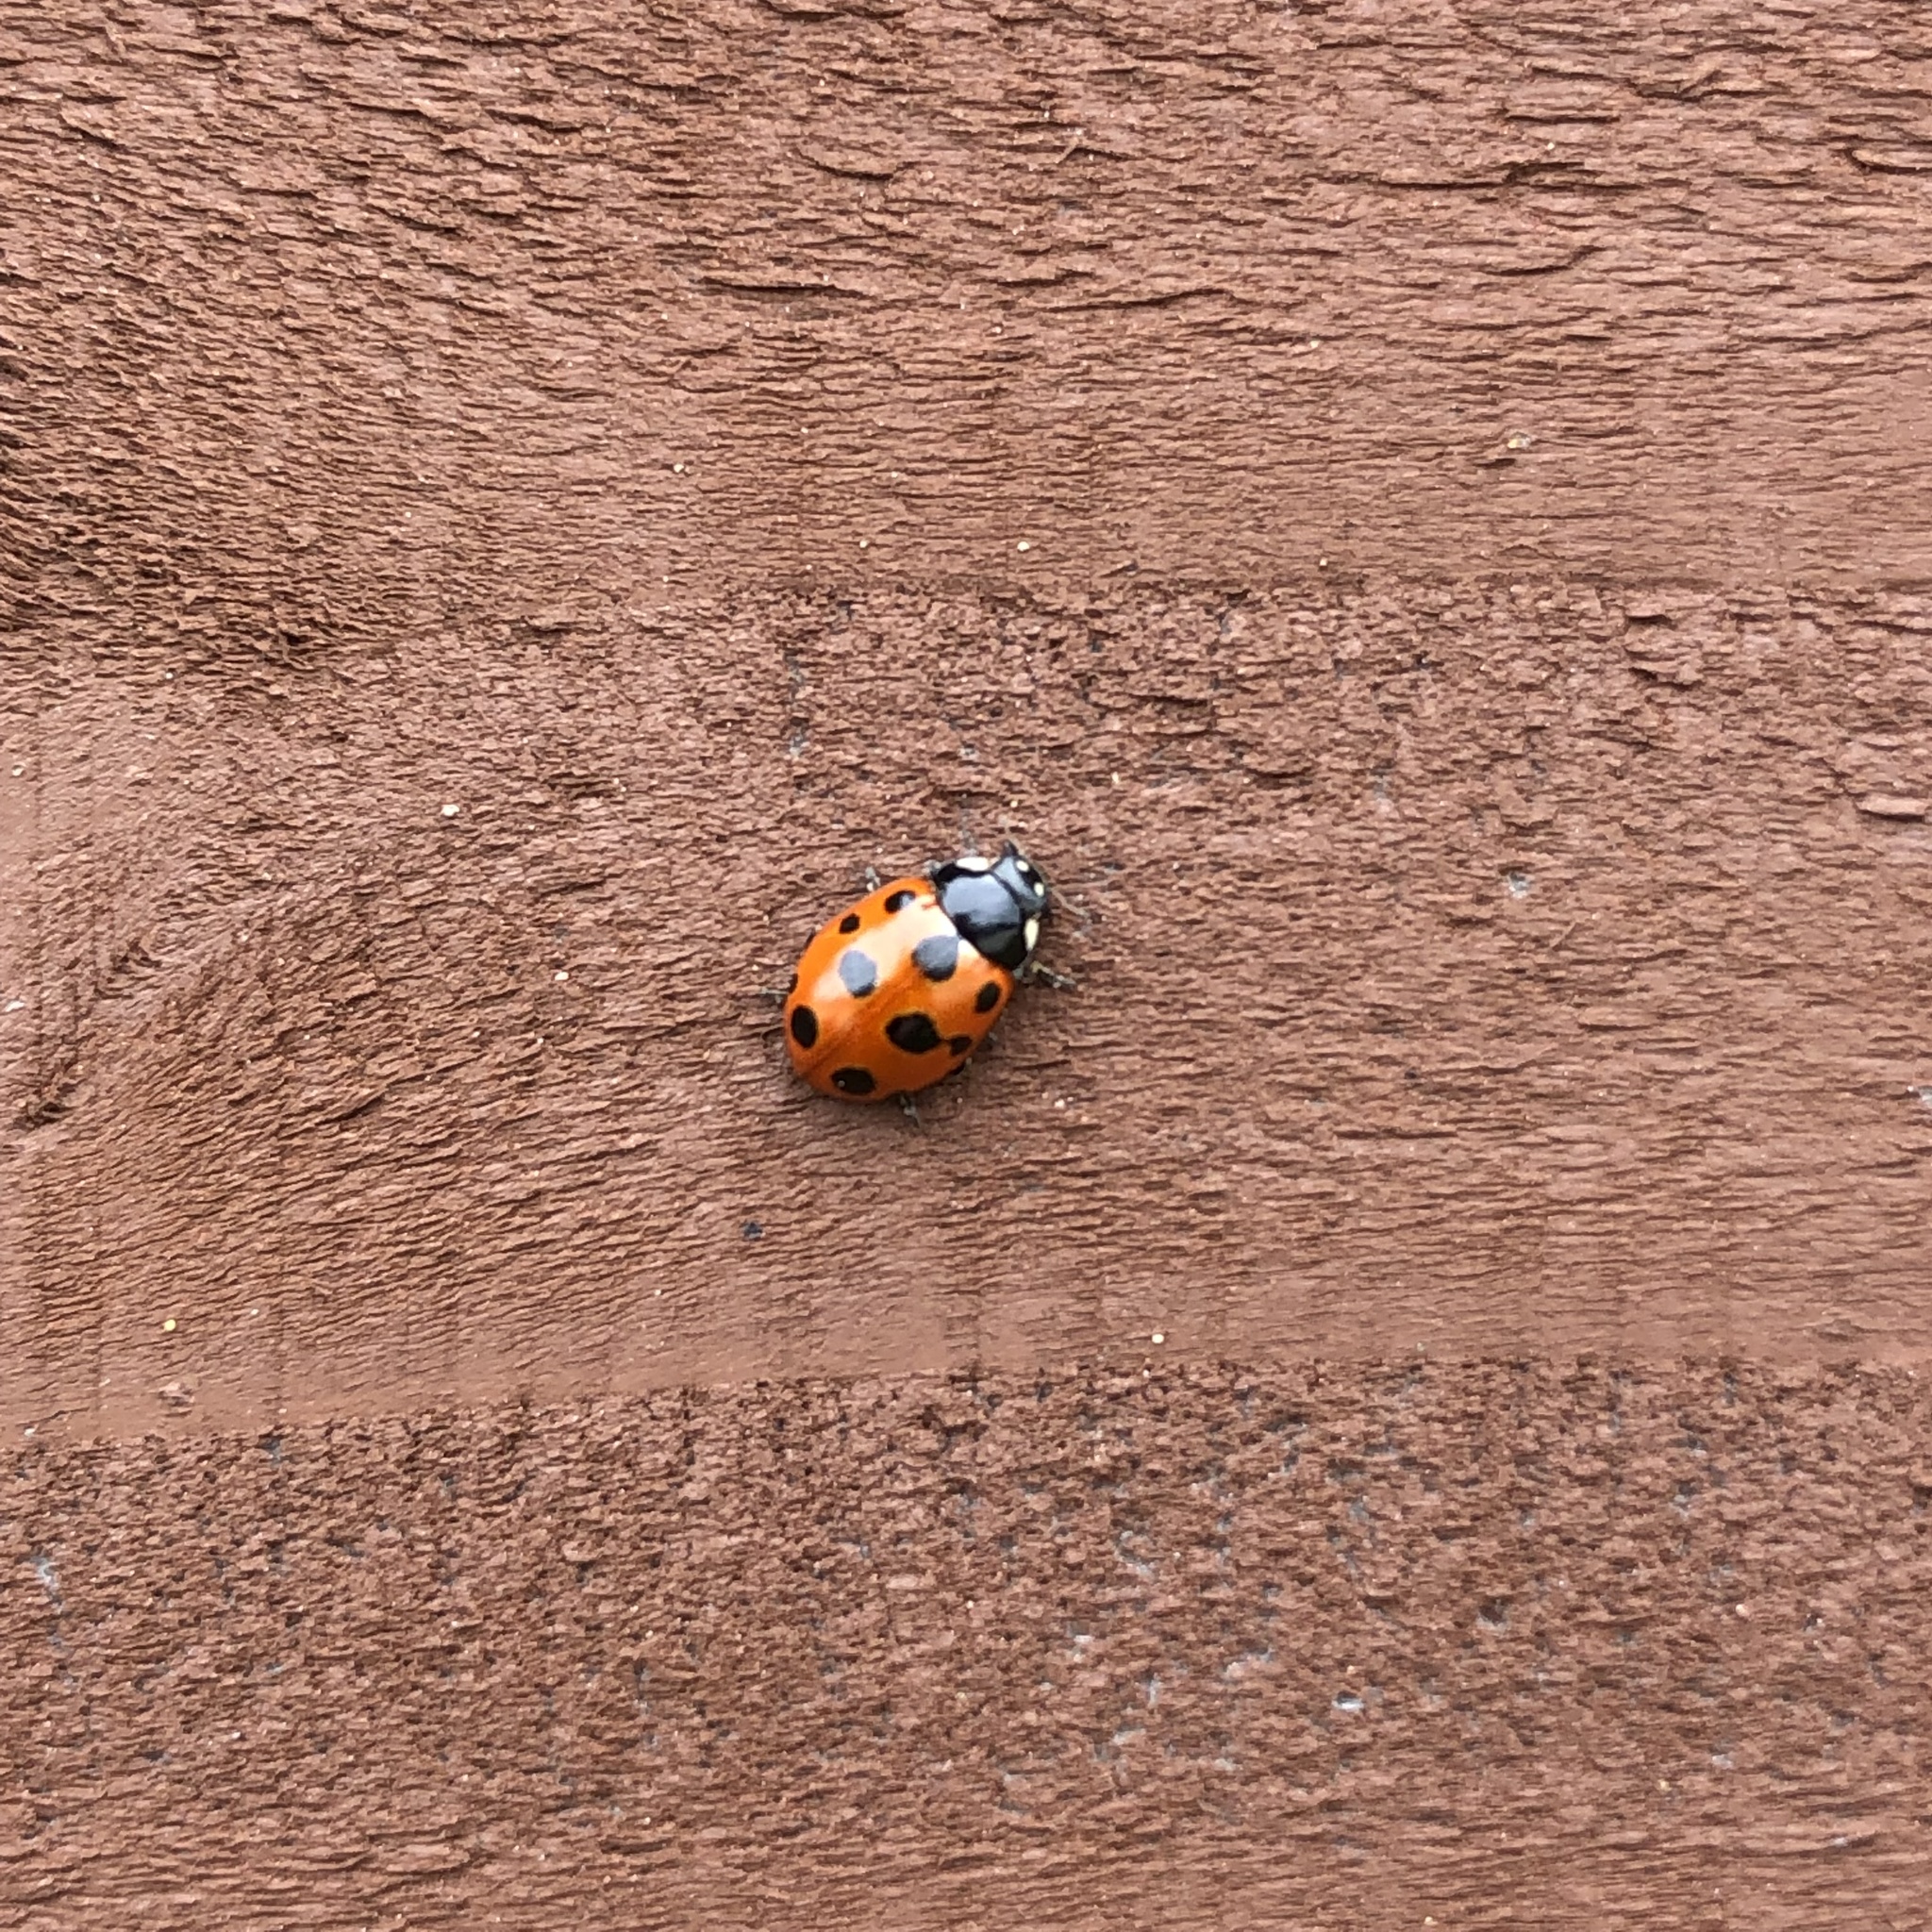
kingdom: Animalia
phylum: Arthropoda
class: Insecta
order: Coleoptera
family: Coccinellidae
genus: Coccinella
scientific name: Coccinella undecimpunctata
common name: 11-spot ladybird
